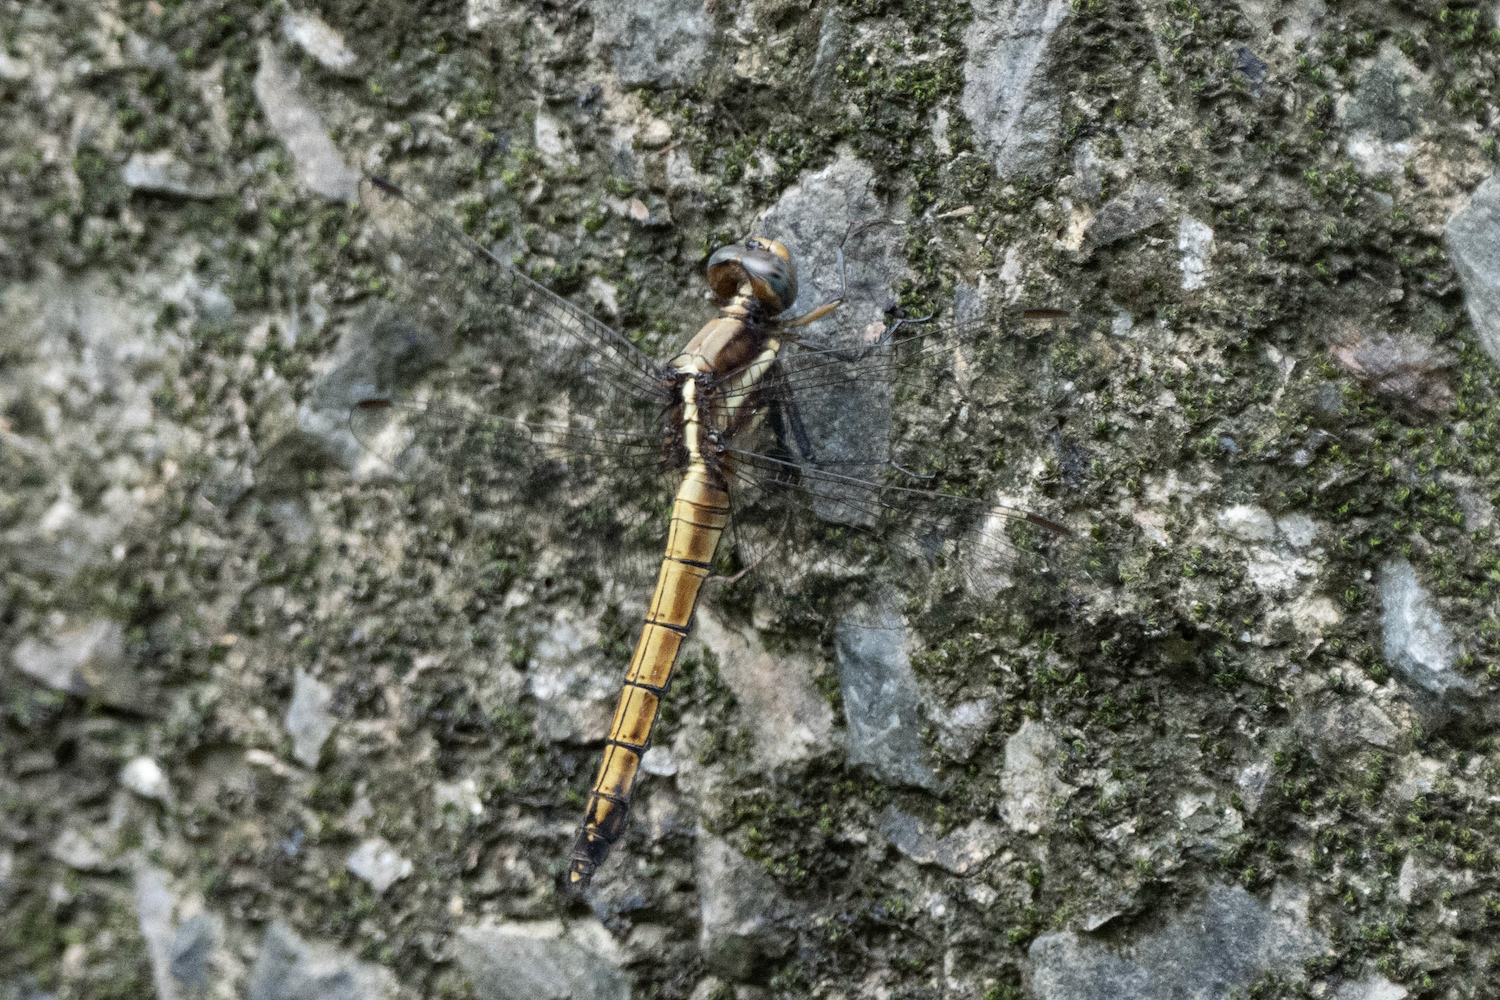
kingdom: Animalia
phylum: Arthropoda
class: Insecta
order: Odonata
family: Libellulidae
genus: Orthetrum
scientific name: Orthetrum glaucum
